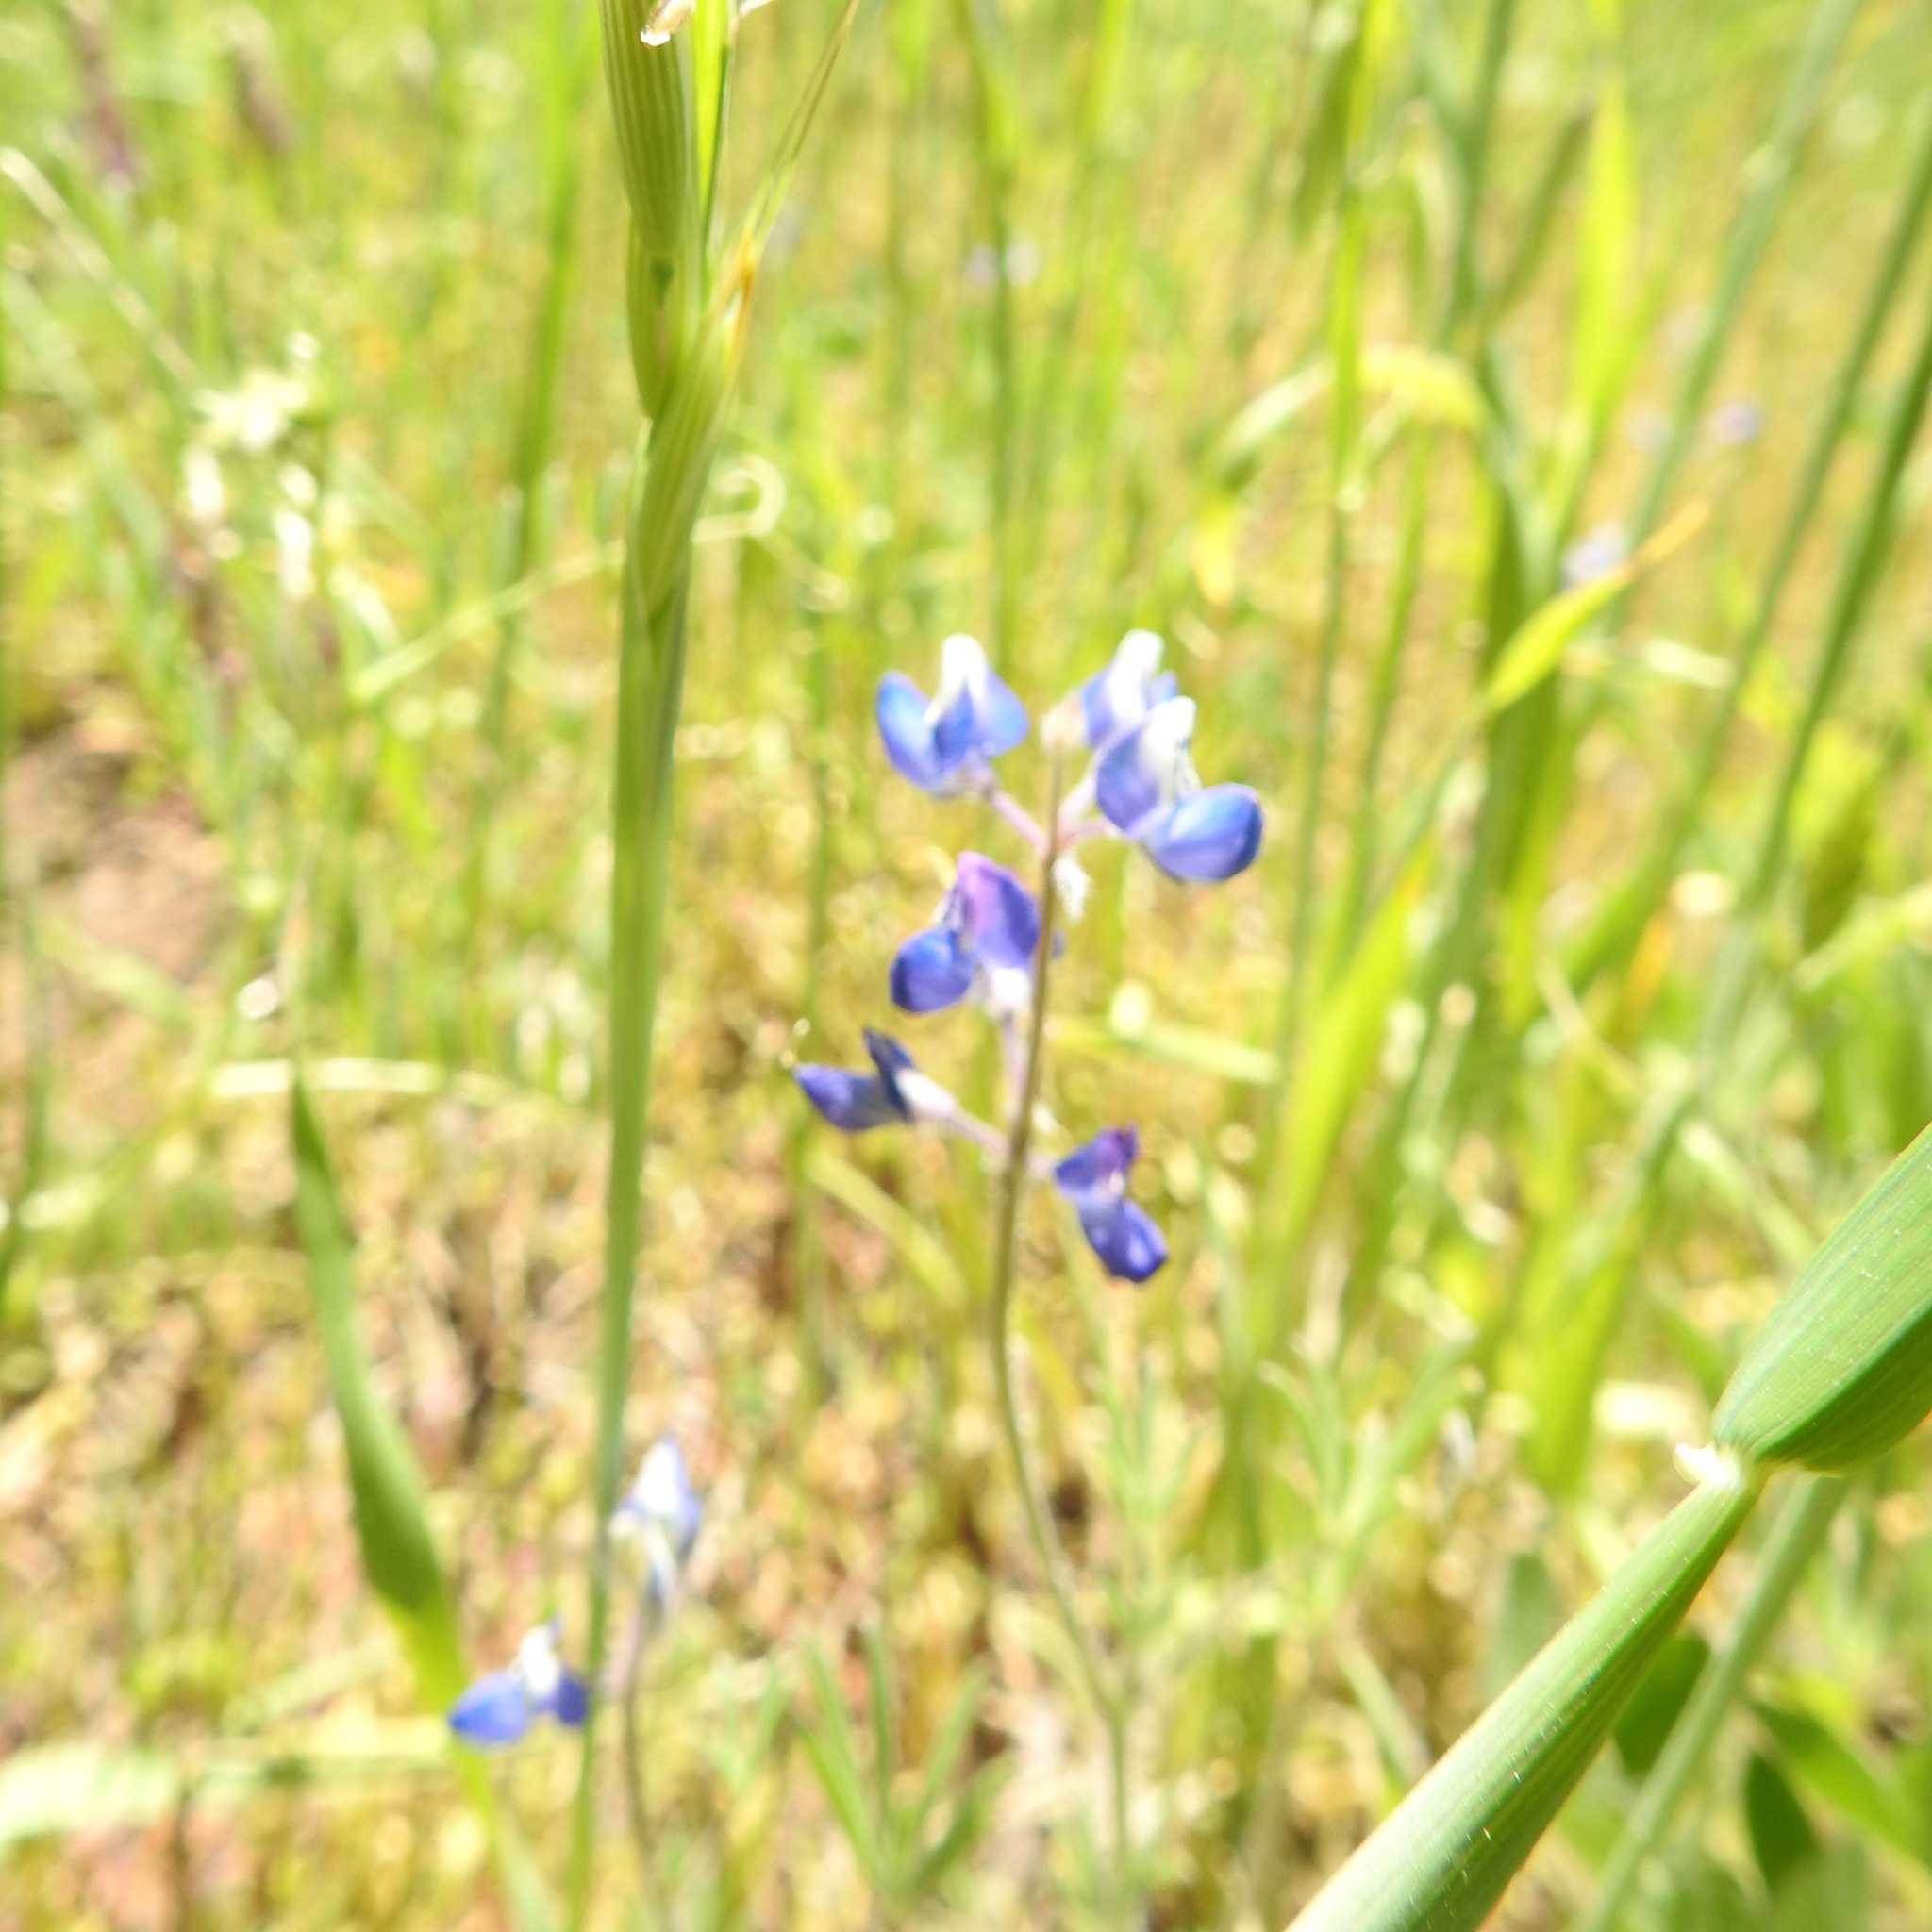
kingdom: Plantae
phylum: Tracheophyta
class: Magnoliopsida
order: Fabales
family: Fabaceae
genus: Lupinus
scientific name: Lupinus bicolor
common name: Miniature lupine
